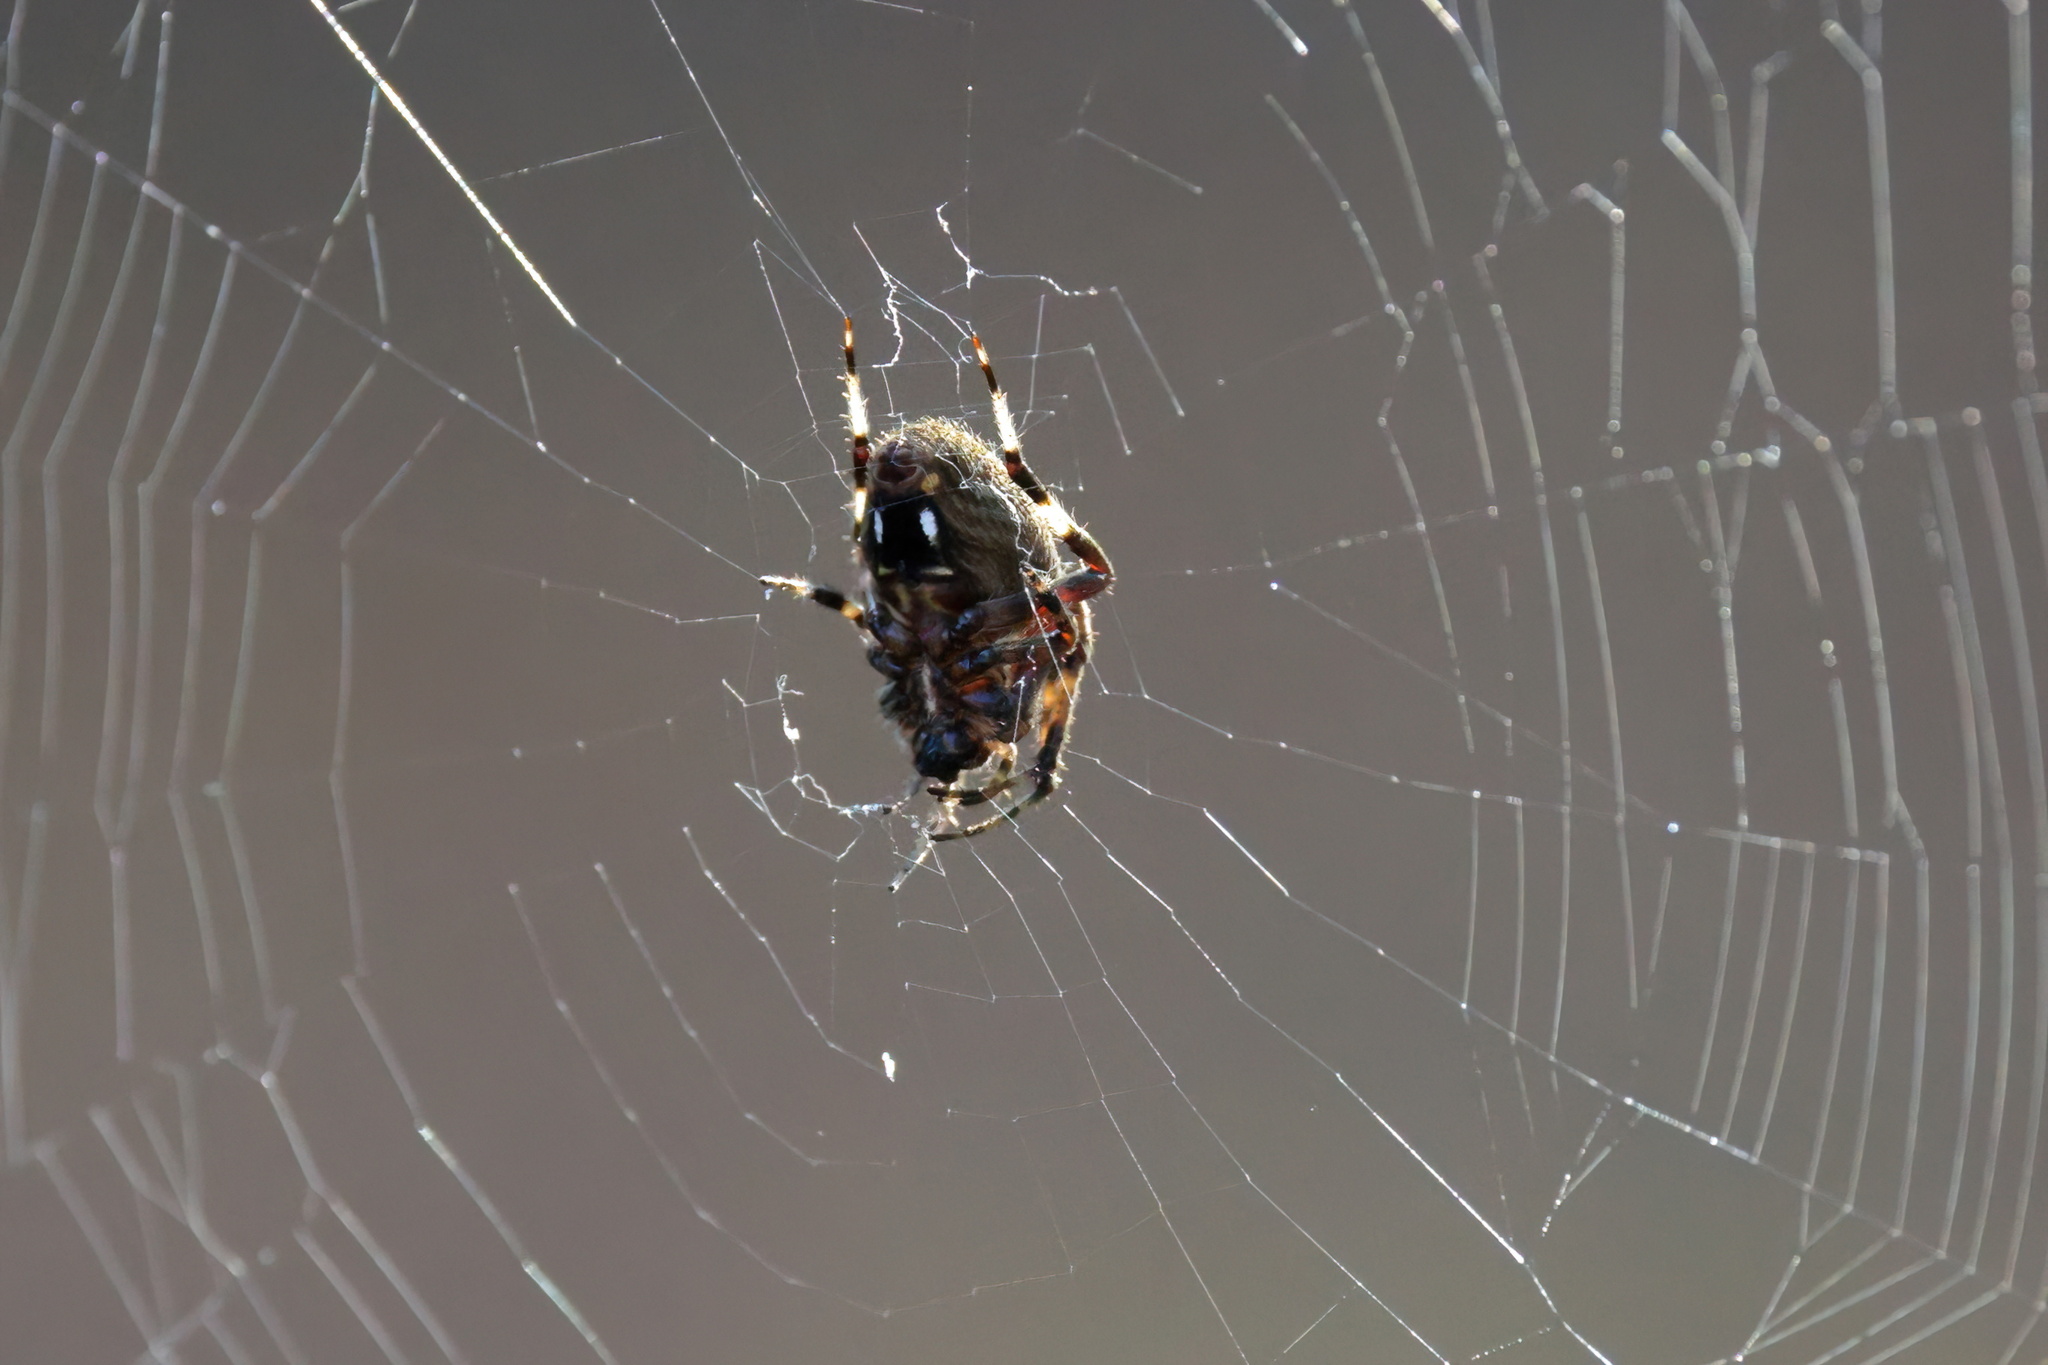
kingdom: Animalia
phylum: Arthropoda
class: Arachnida
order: Araneae
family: Araneidae
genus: Neoscona
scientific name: Neoscona crucifera
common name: Spotted orbweaver
